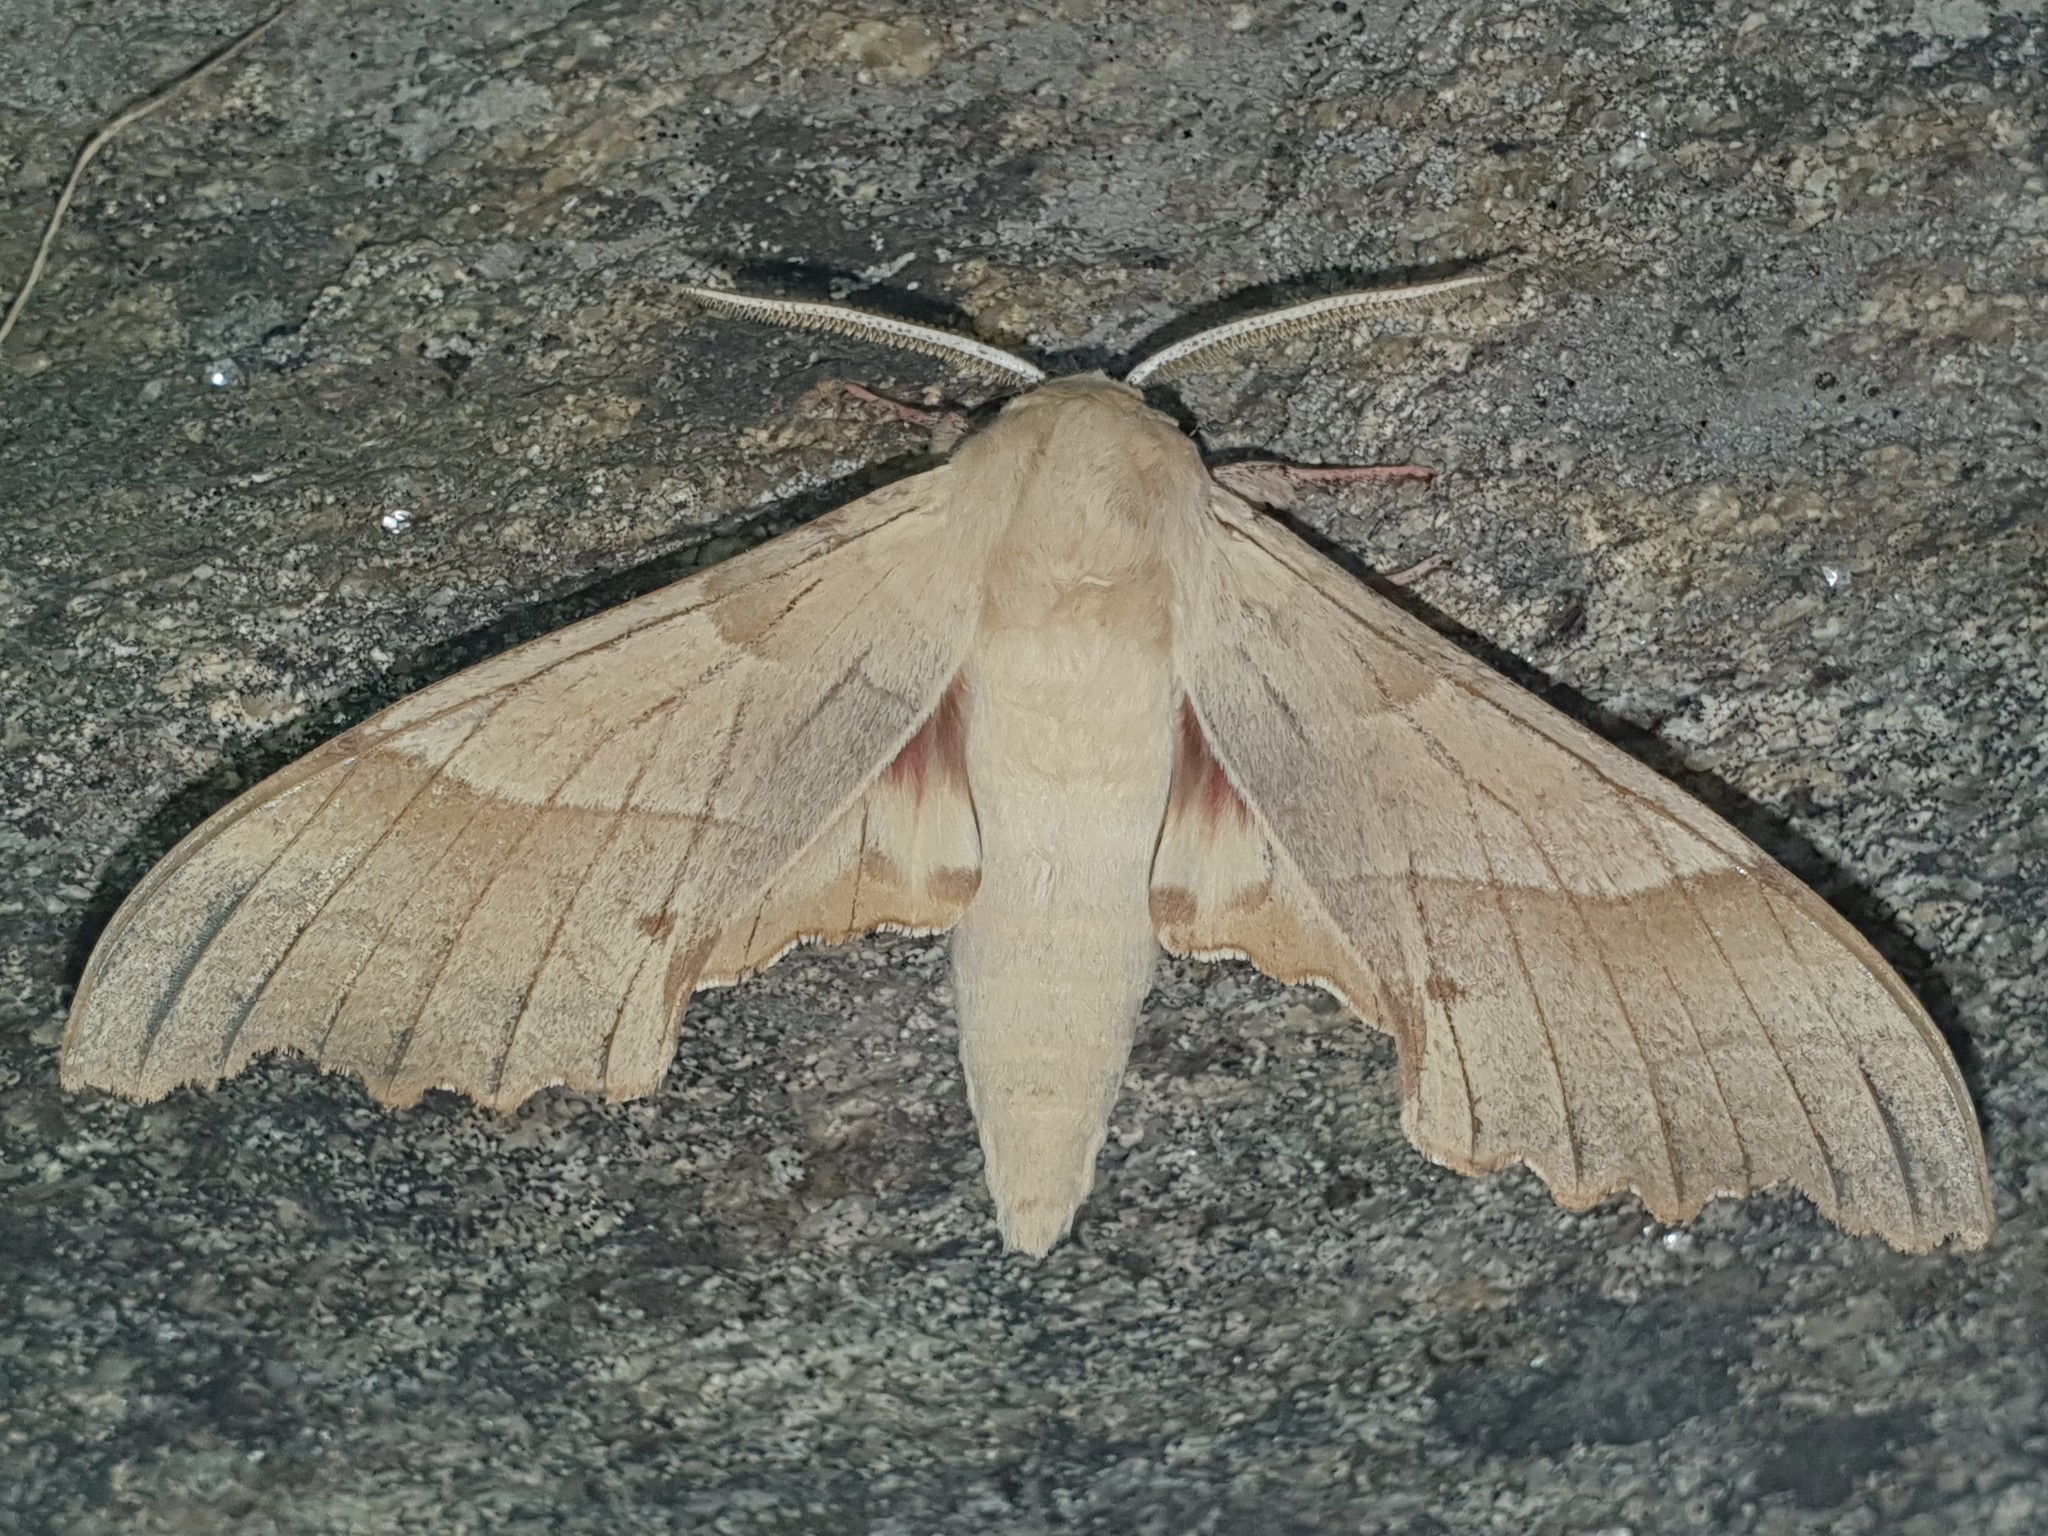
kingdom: Animalia
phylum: Arthropoda
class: Insecta
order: Lepidoptera
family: Sphingidae
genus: Marumba
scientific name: Marumba quercus
